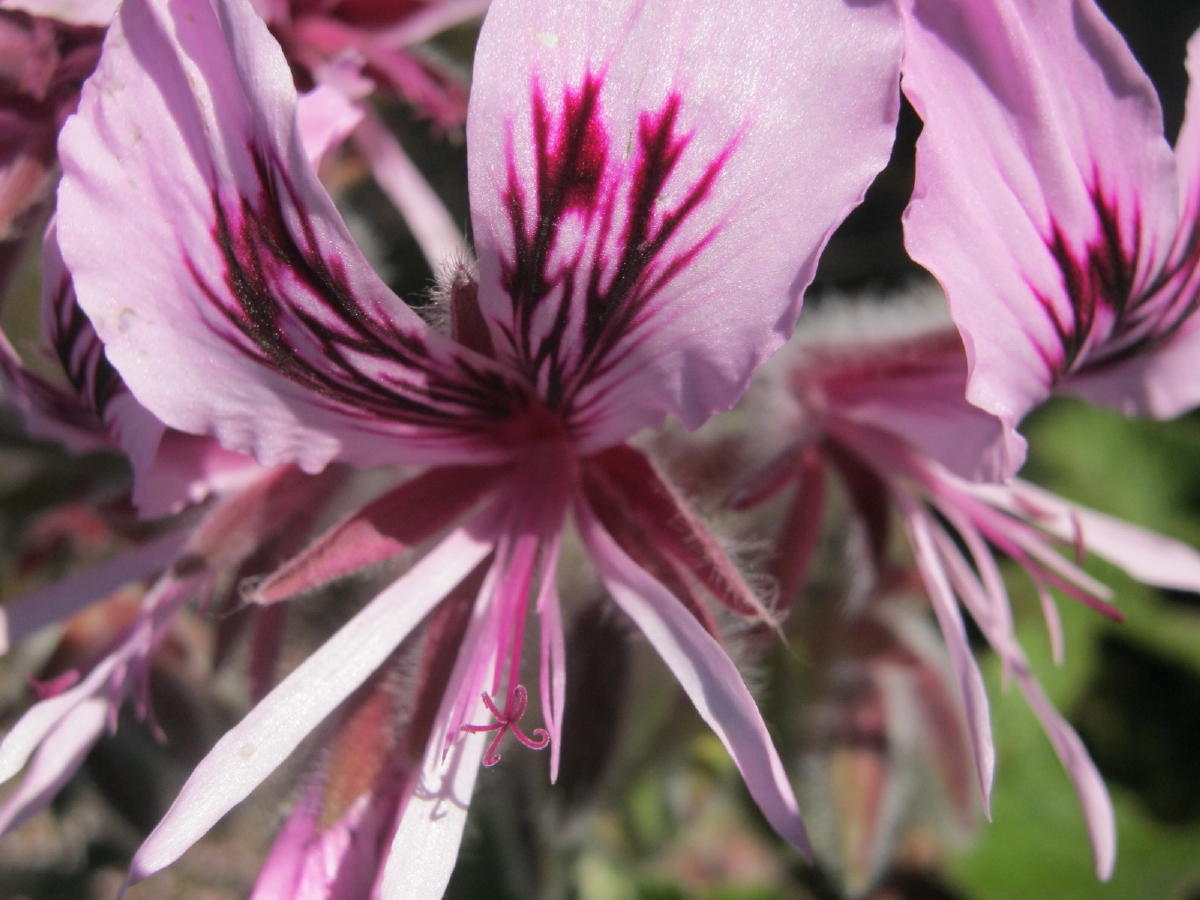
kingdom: Plantae
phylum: Tracheophyta
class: Magnoliopsida
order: Geraniales
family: Geraniaceae
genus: Pelargonium
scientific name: Pelargonium cordifolium
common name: Heart-leaf pelargonium
